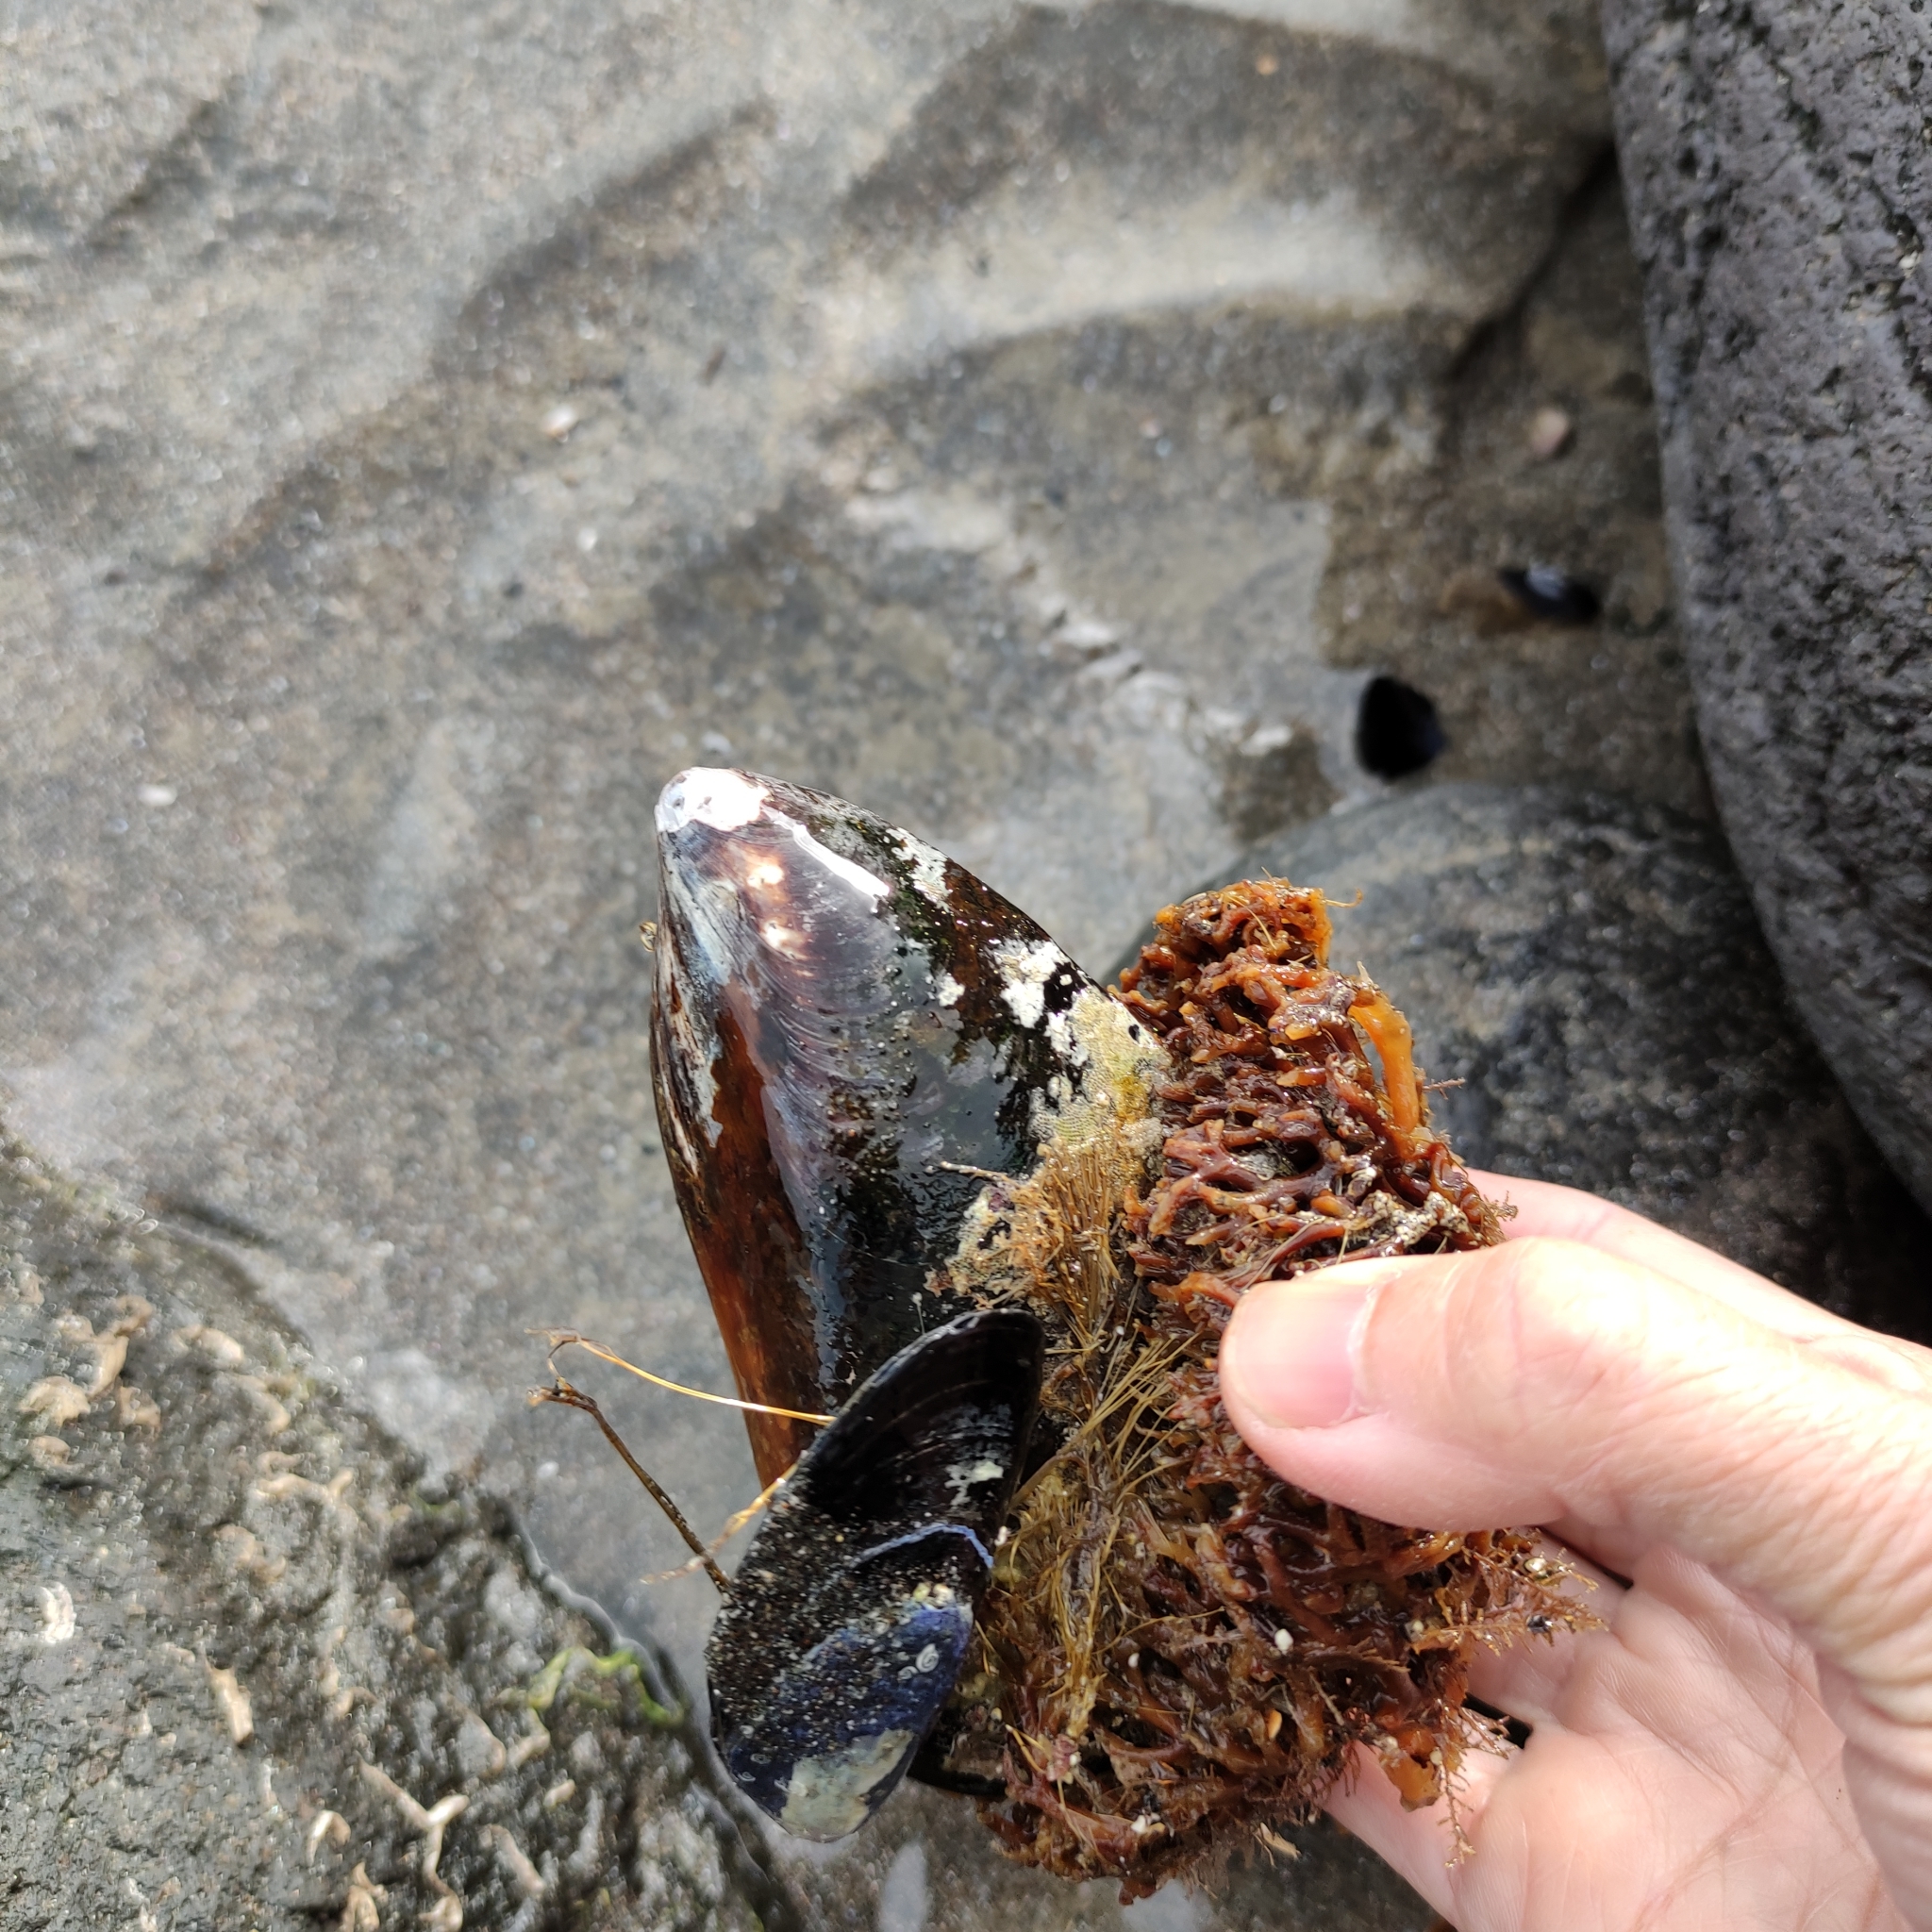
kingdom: Animalia
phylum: Mollusca
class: Bivalvia
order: Mytilida
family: Mytilidae
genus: Perna
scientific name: Perna canaliculus
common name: New zealand greenshelltm
